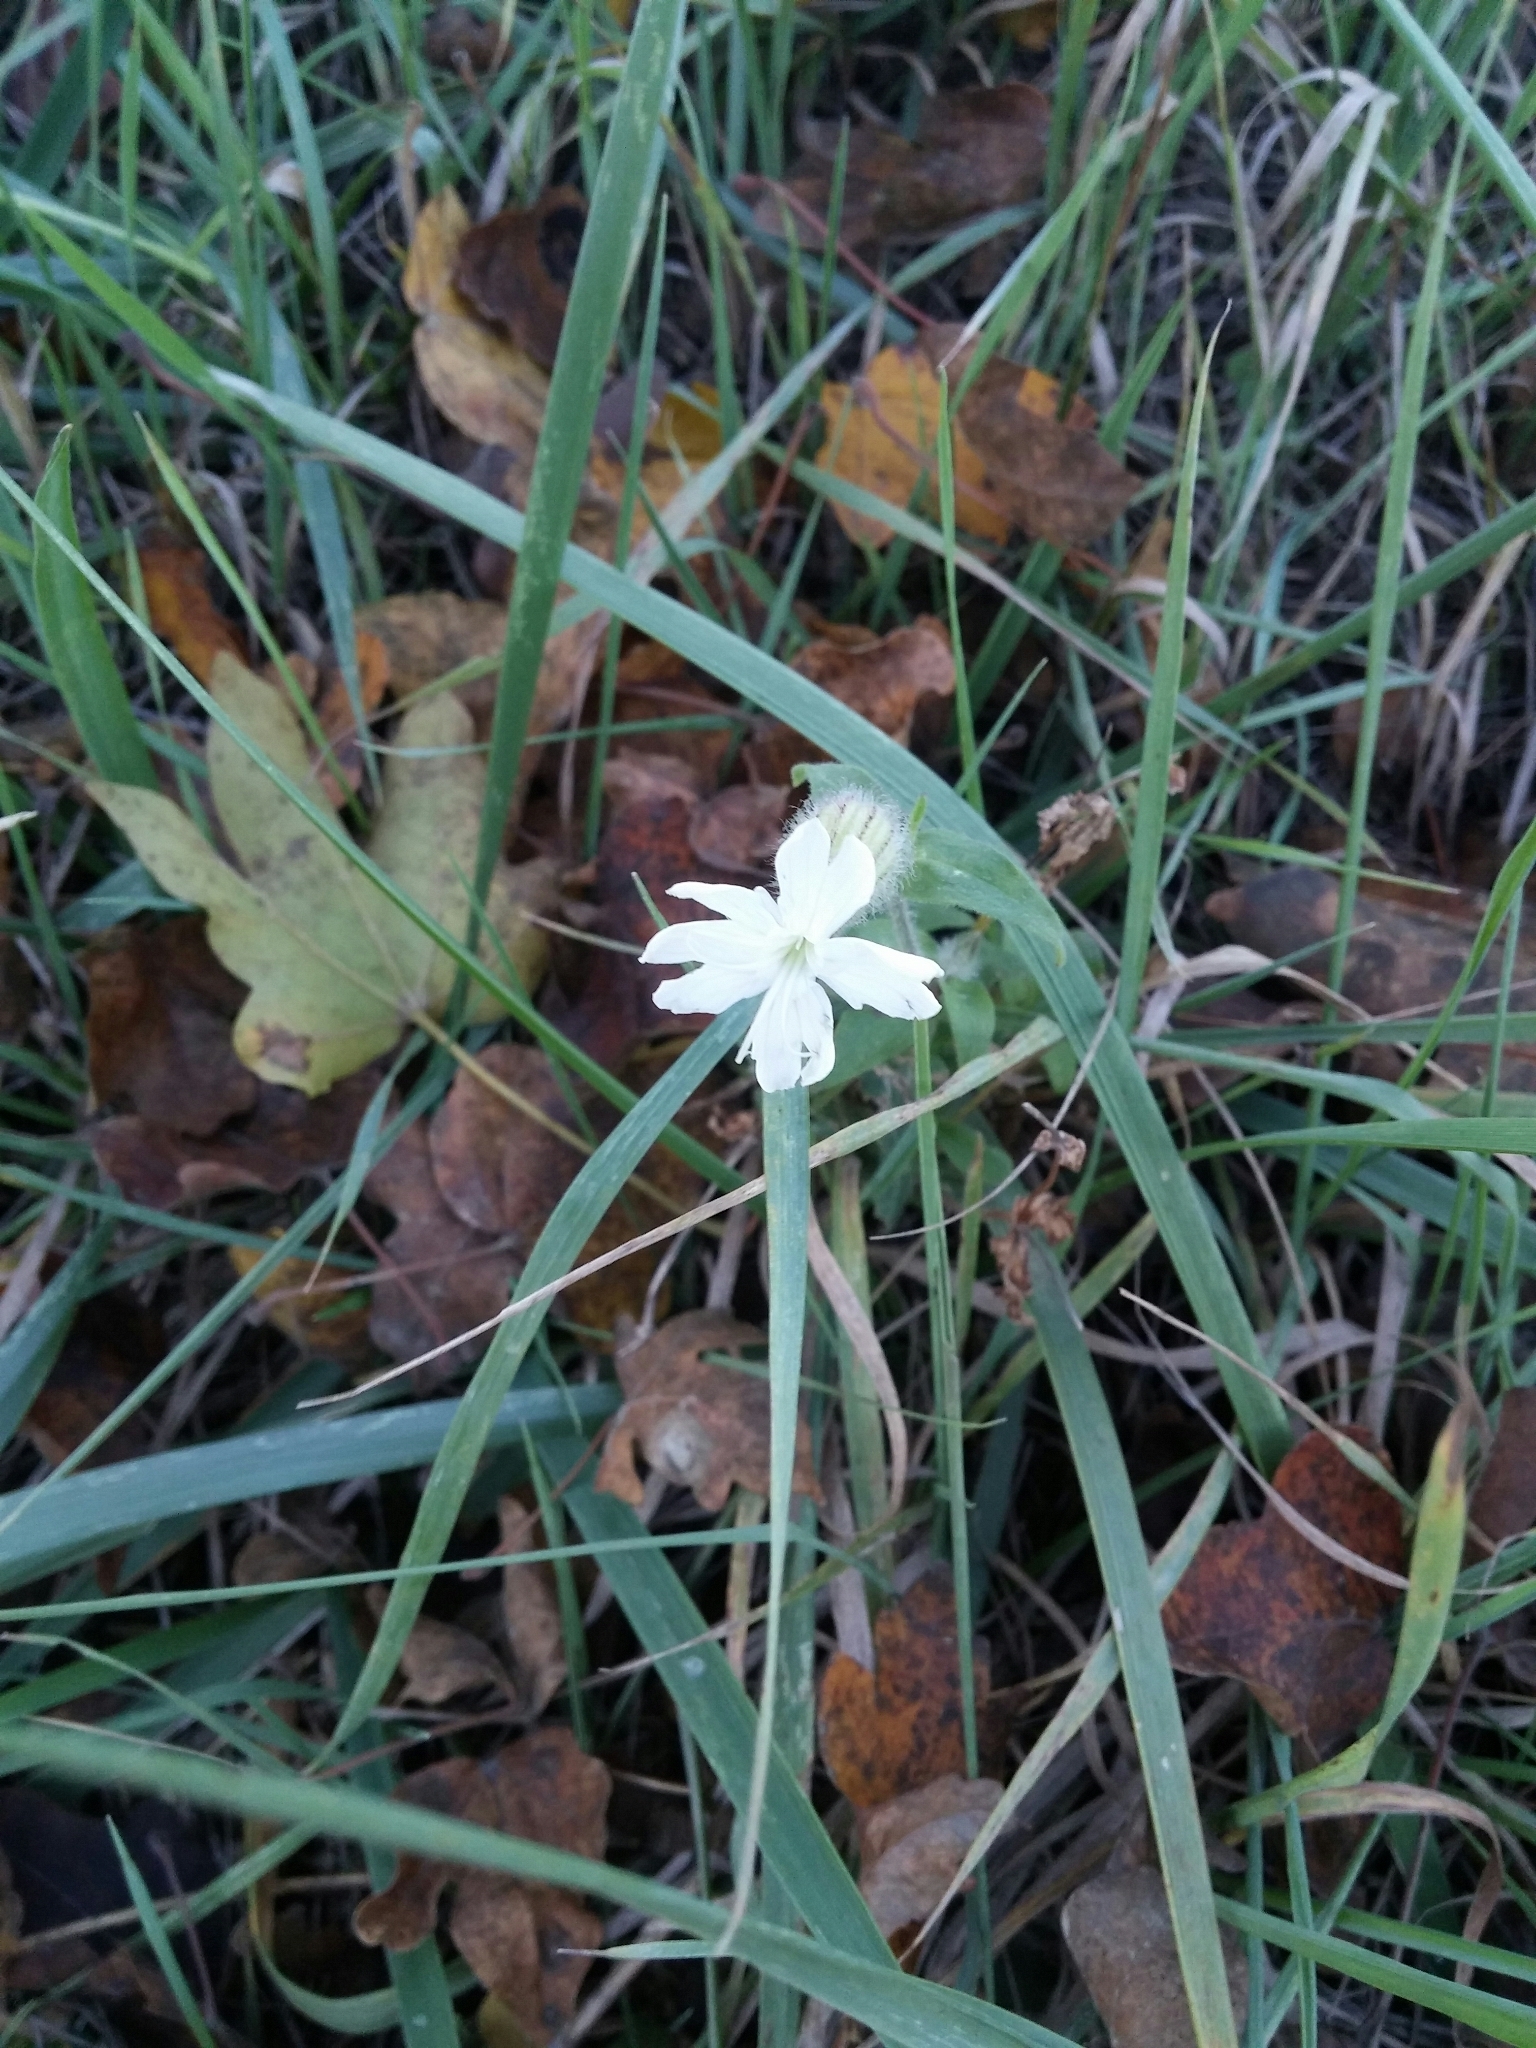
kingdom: Plantae
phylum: Tracheophyta
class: Magnoliopsida
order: Caryophyllales
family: Caryophyllaceae
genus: Silene
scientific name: Silene latifolia
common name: White campion
